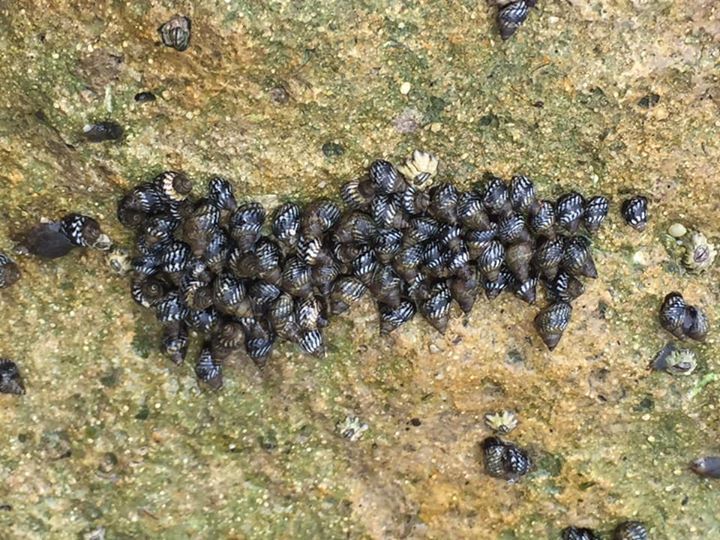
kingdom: Animalia
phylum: Mollusca
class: Gastropoda
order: Littorinimorpha
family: Littorinidae
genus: Echinolittorina
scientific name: Echinolittorina placida
